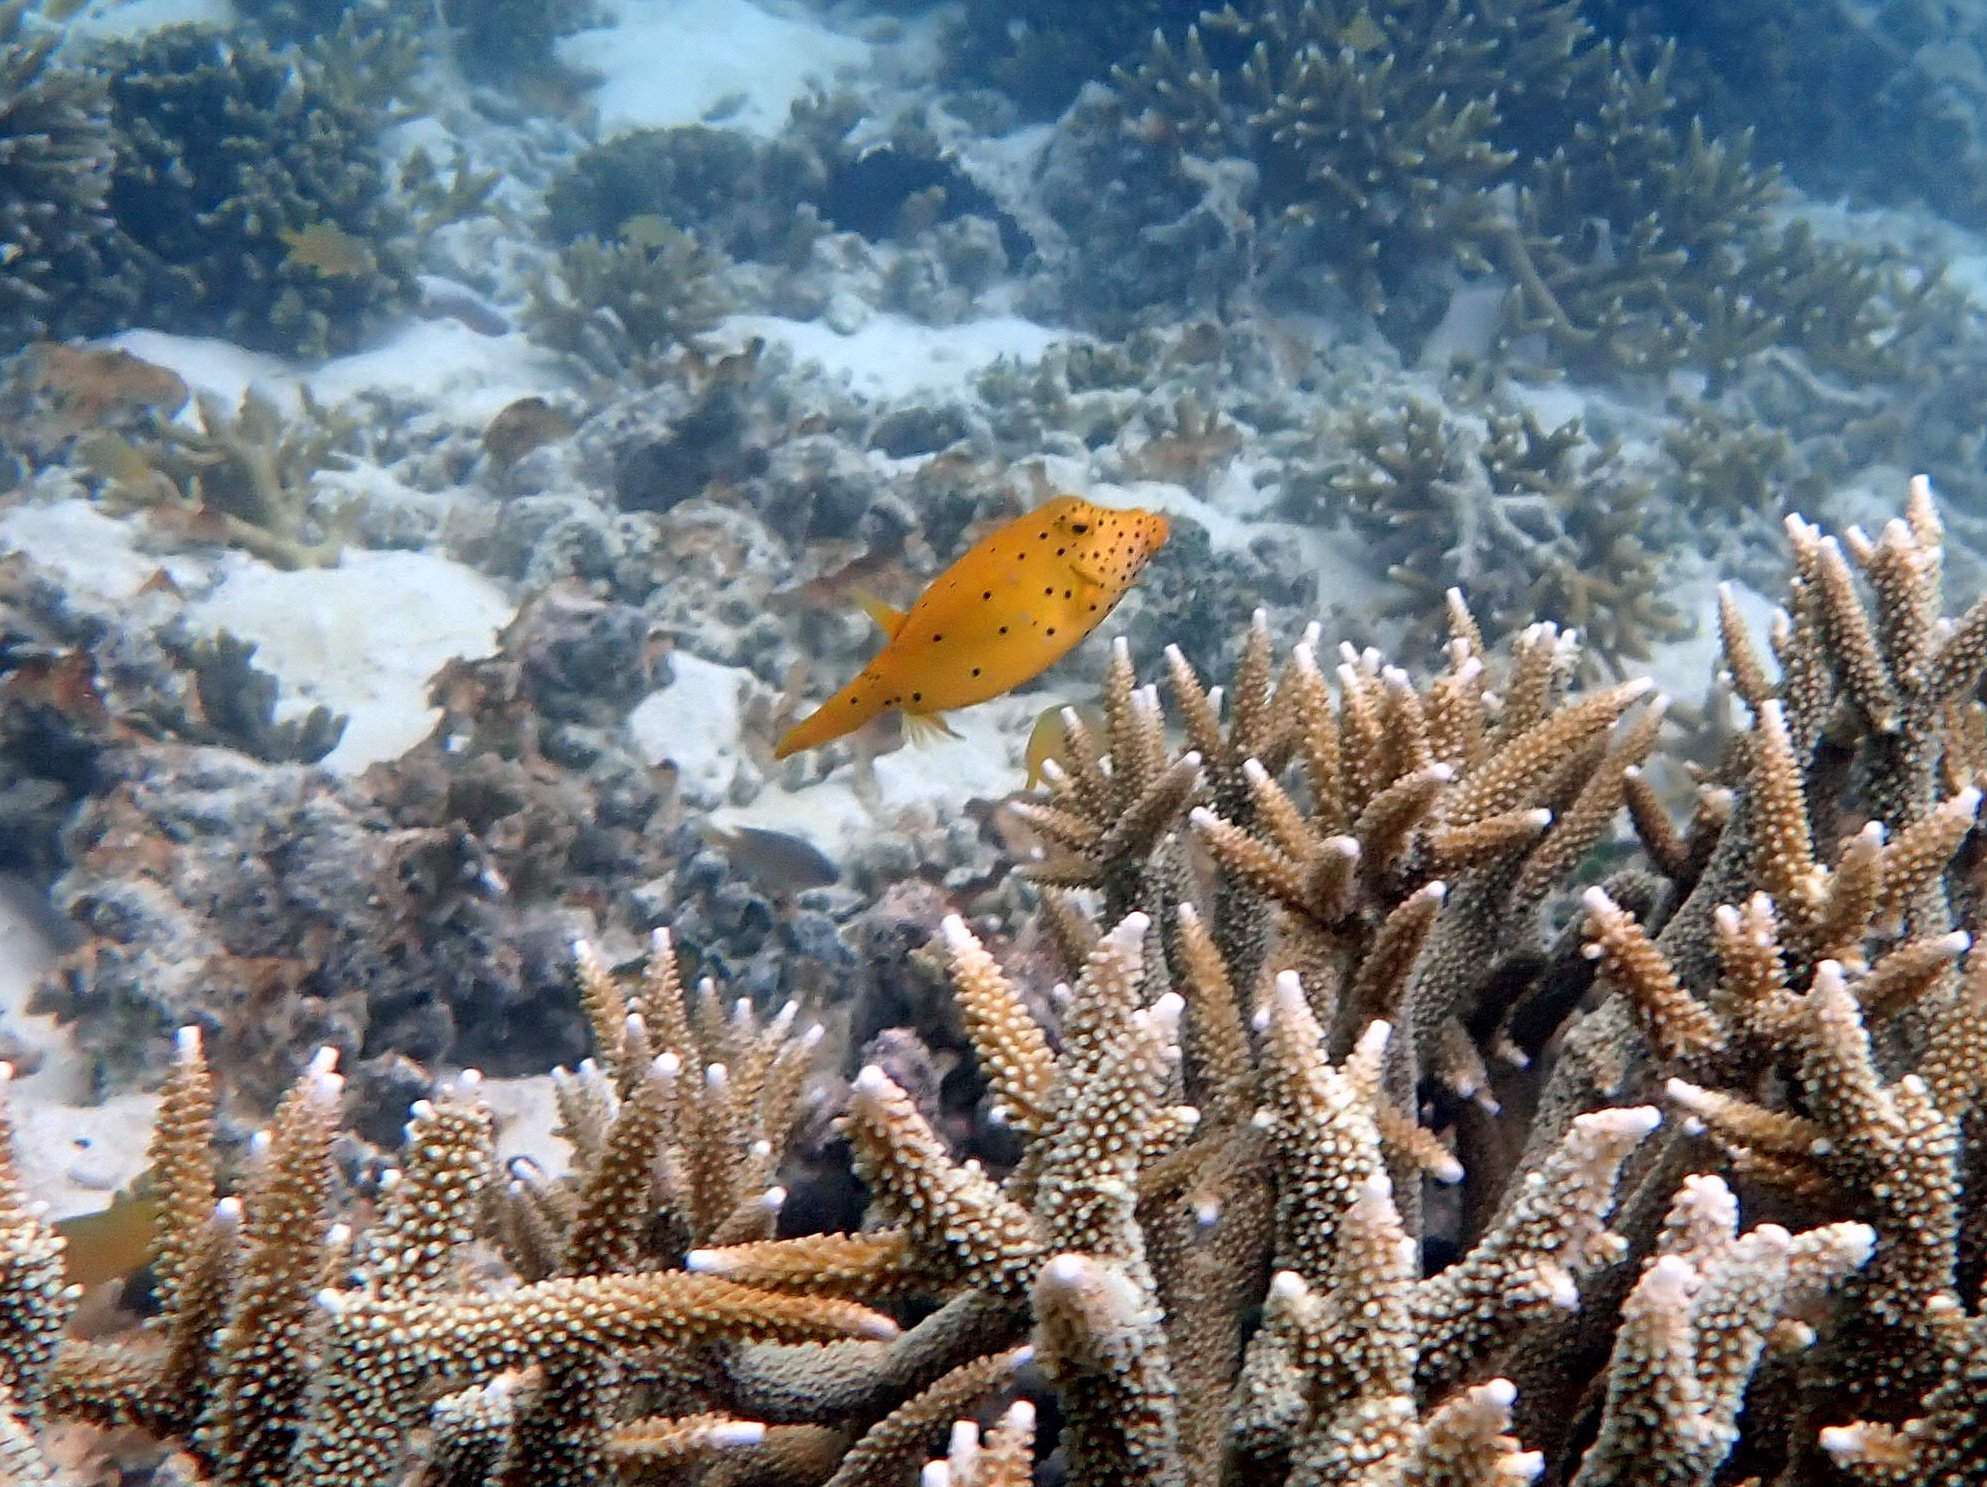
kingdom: Animalia
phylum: Chordata
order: Tetraodontiformes
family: Ostraciidae
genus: Ostracion
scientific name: Ostracion cubicus
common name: Cube trunkfish
